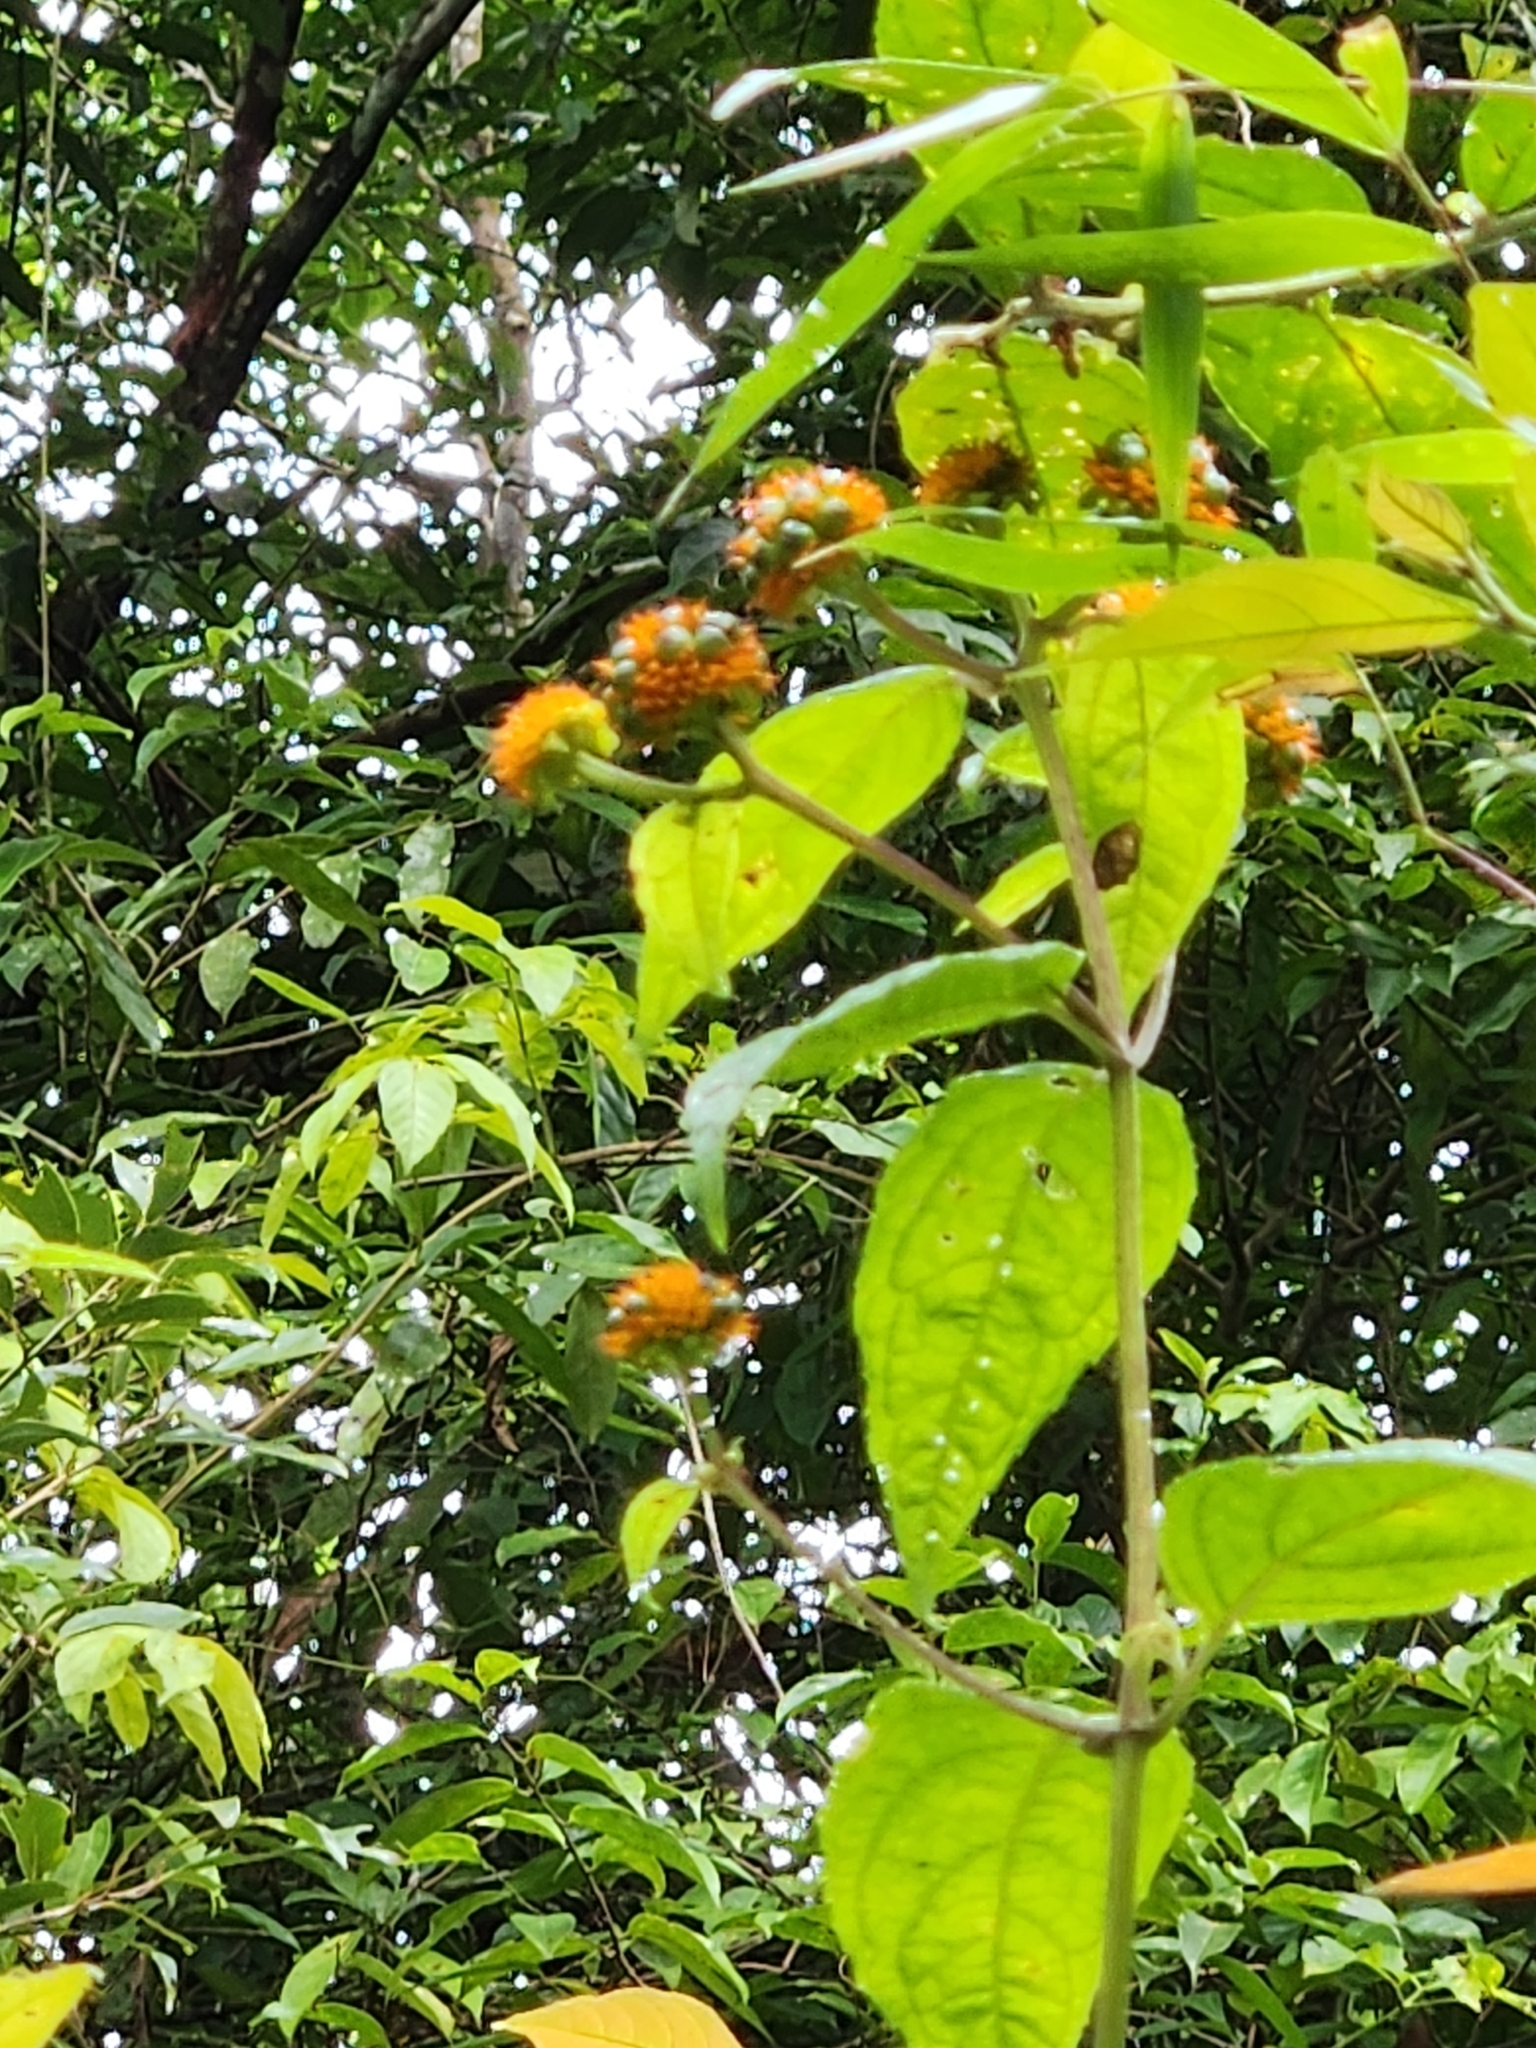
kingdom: Plantae
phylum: Tracheophyta
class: Magnoliopsida
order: Asterales
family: Asteraceae
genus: Tilesia
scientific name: Tilesia baccata
